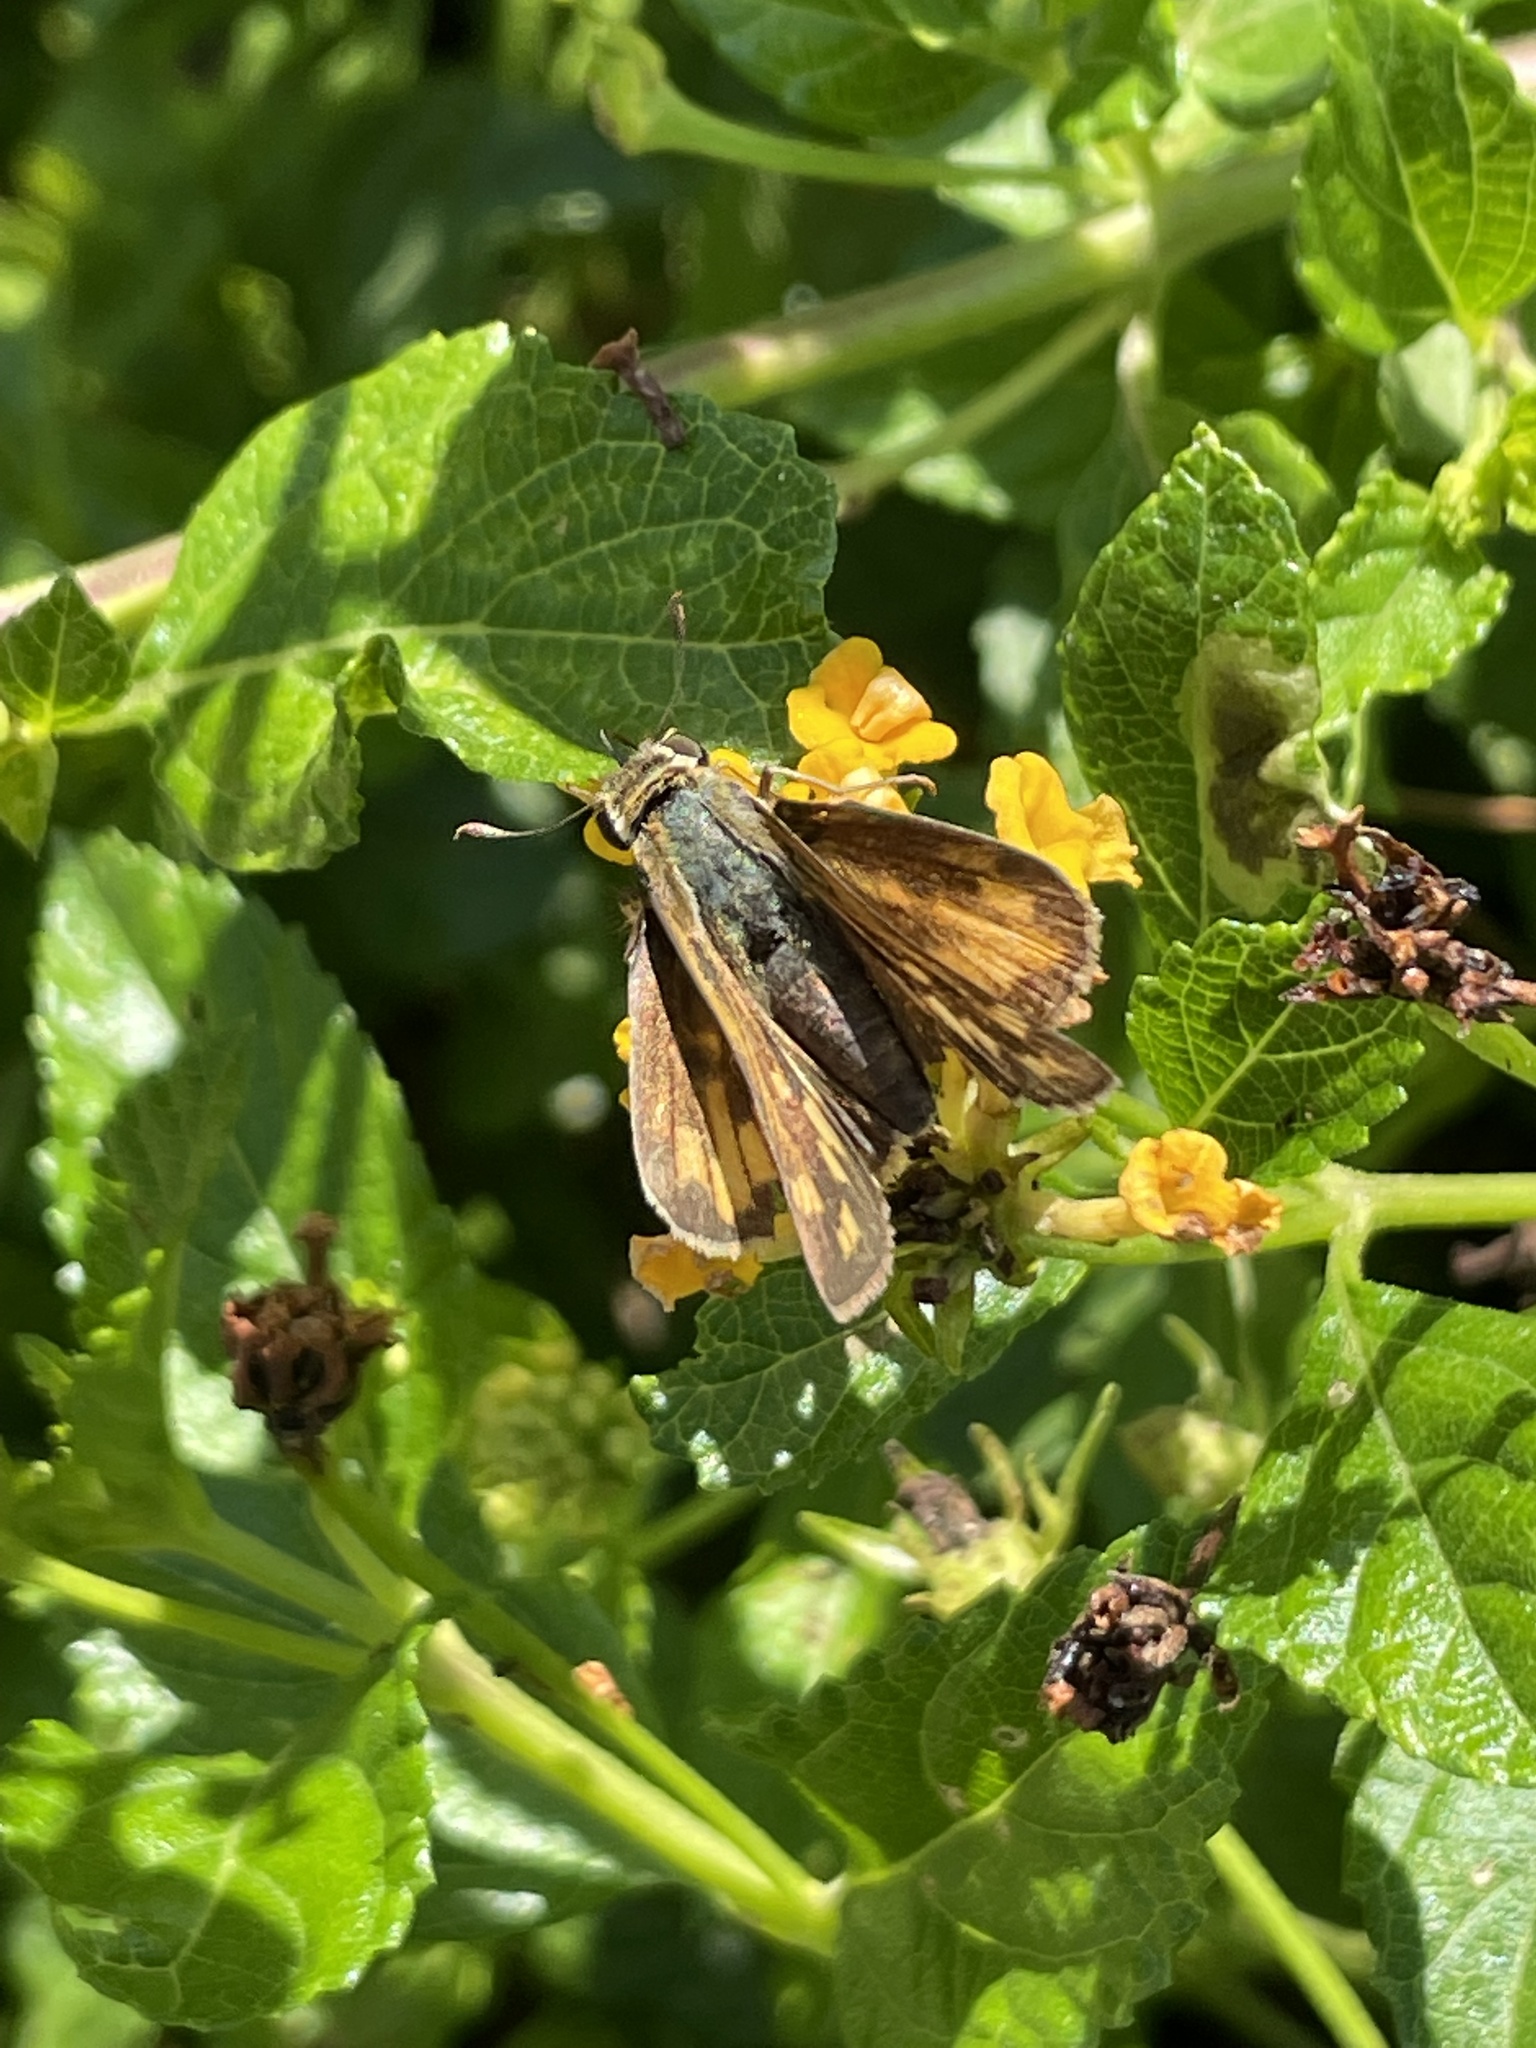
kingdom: Animalia
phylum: Arthropoda
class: Insecta
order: Lepidoptera
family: Hesperiidae
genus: Hylephila
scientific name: Hylephila phyleus
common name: Fiery skipper
